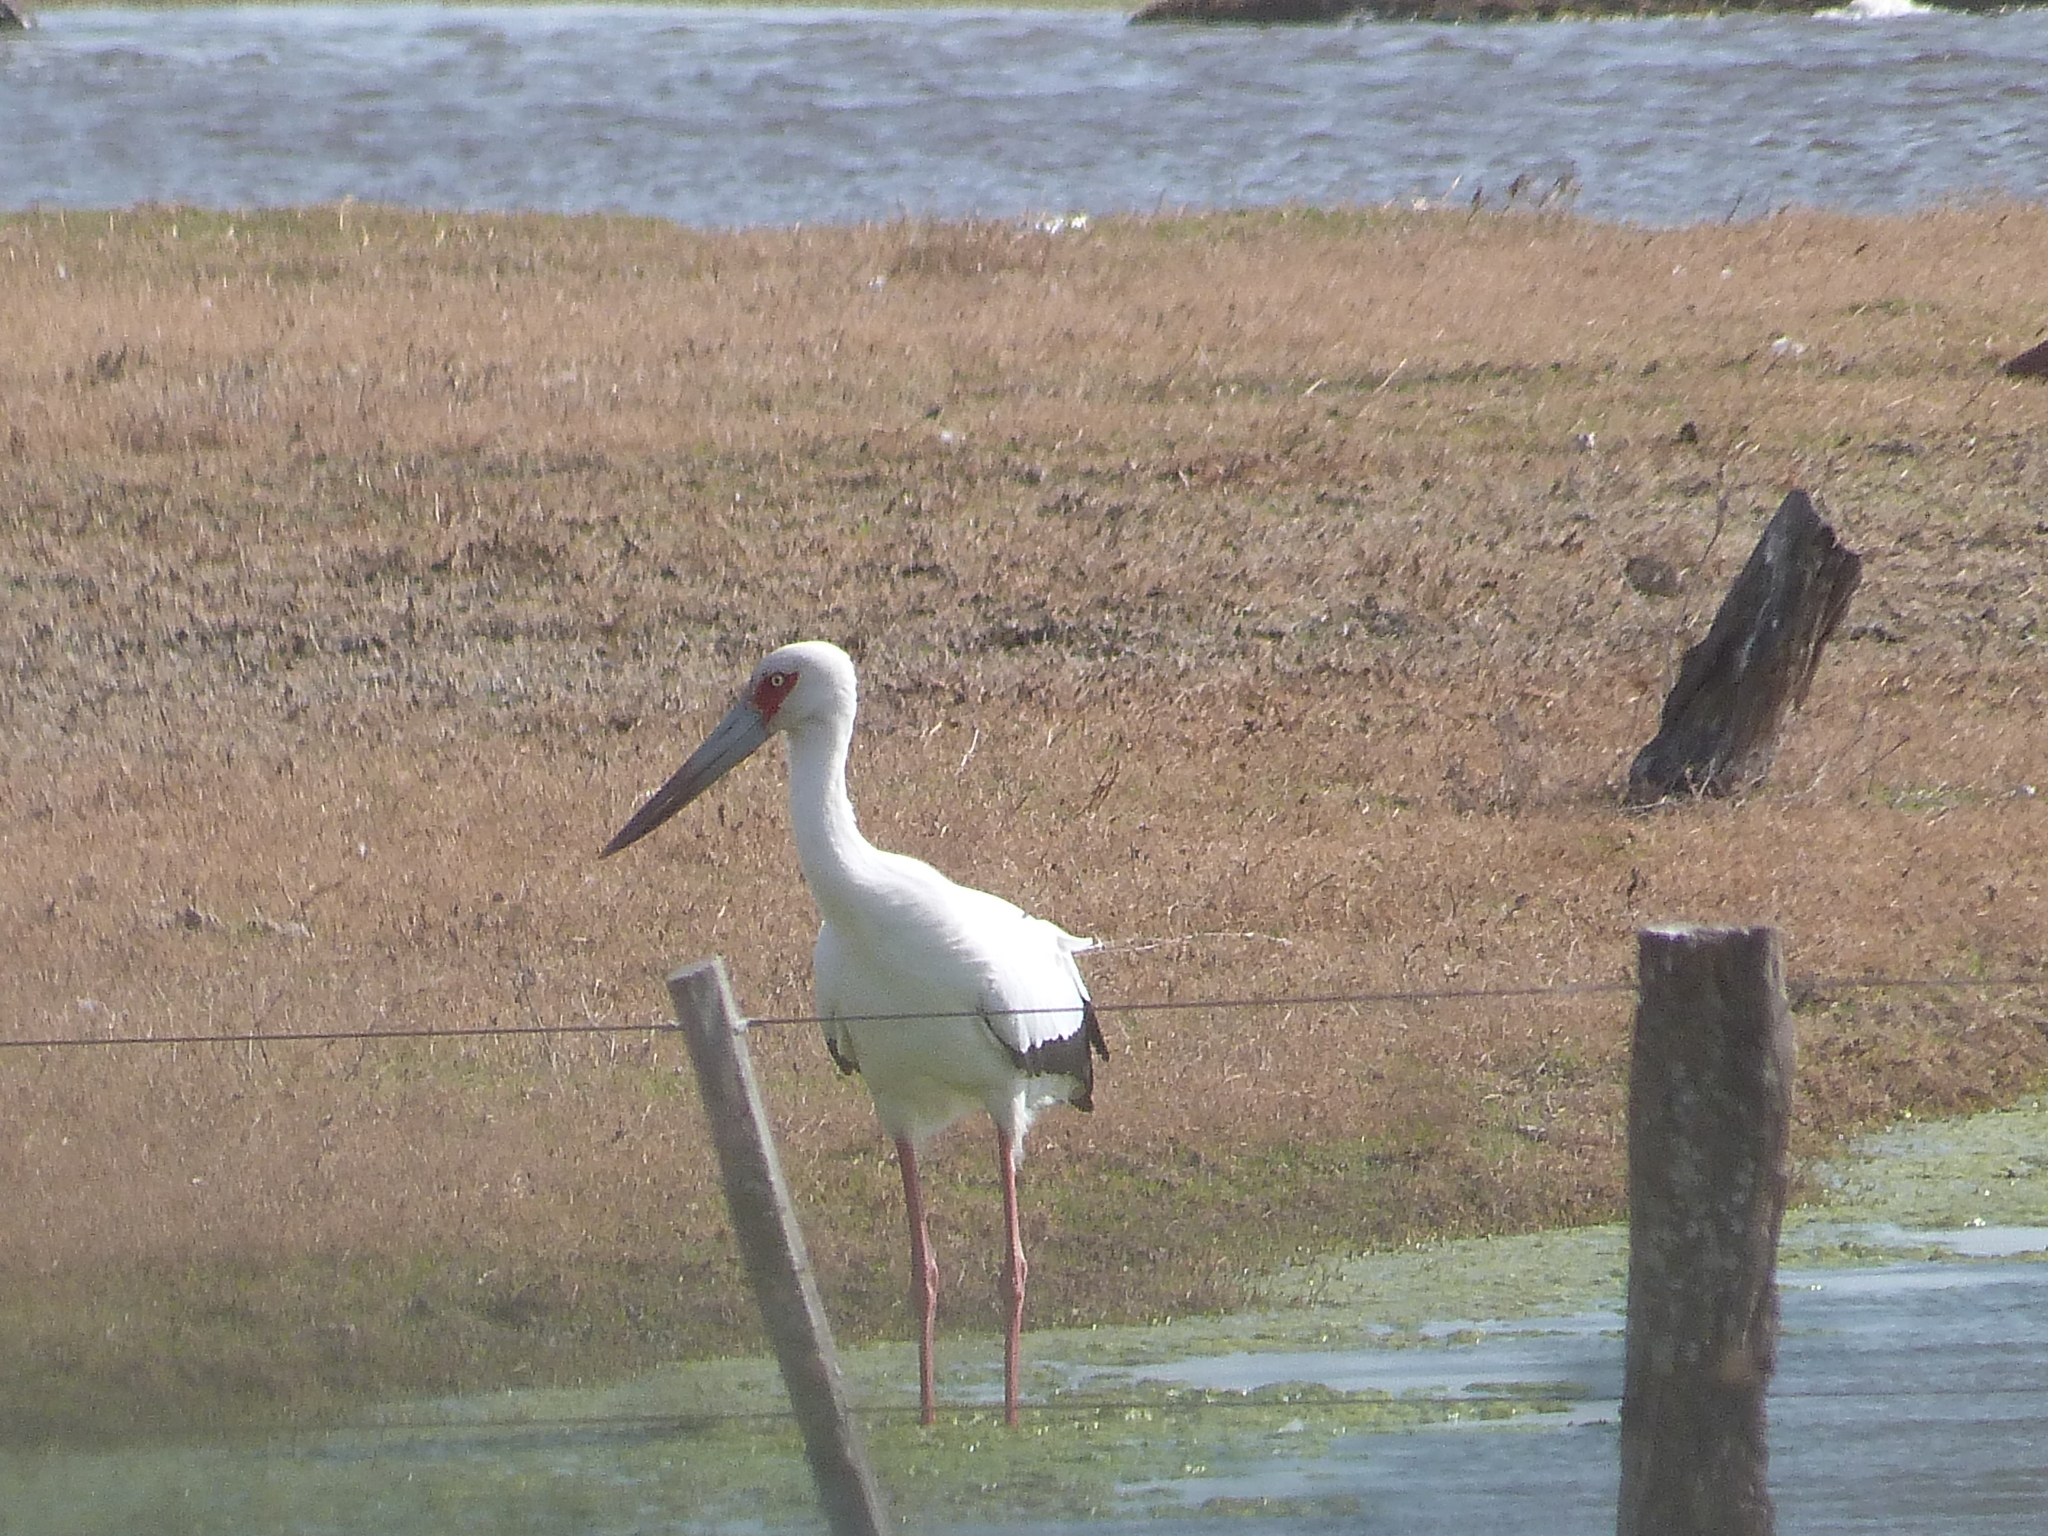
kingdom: Animalia
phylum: Chordata
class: Aves
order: Ciconiiformes
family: Ciconiidae
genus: Ciconia
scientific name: Ciconia maguari
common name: Maguari stork
